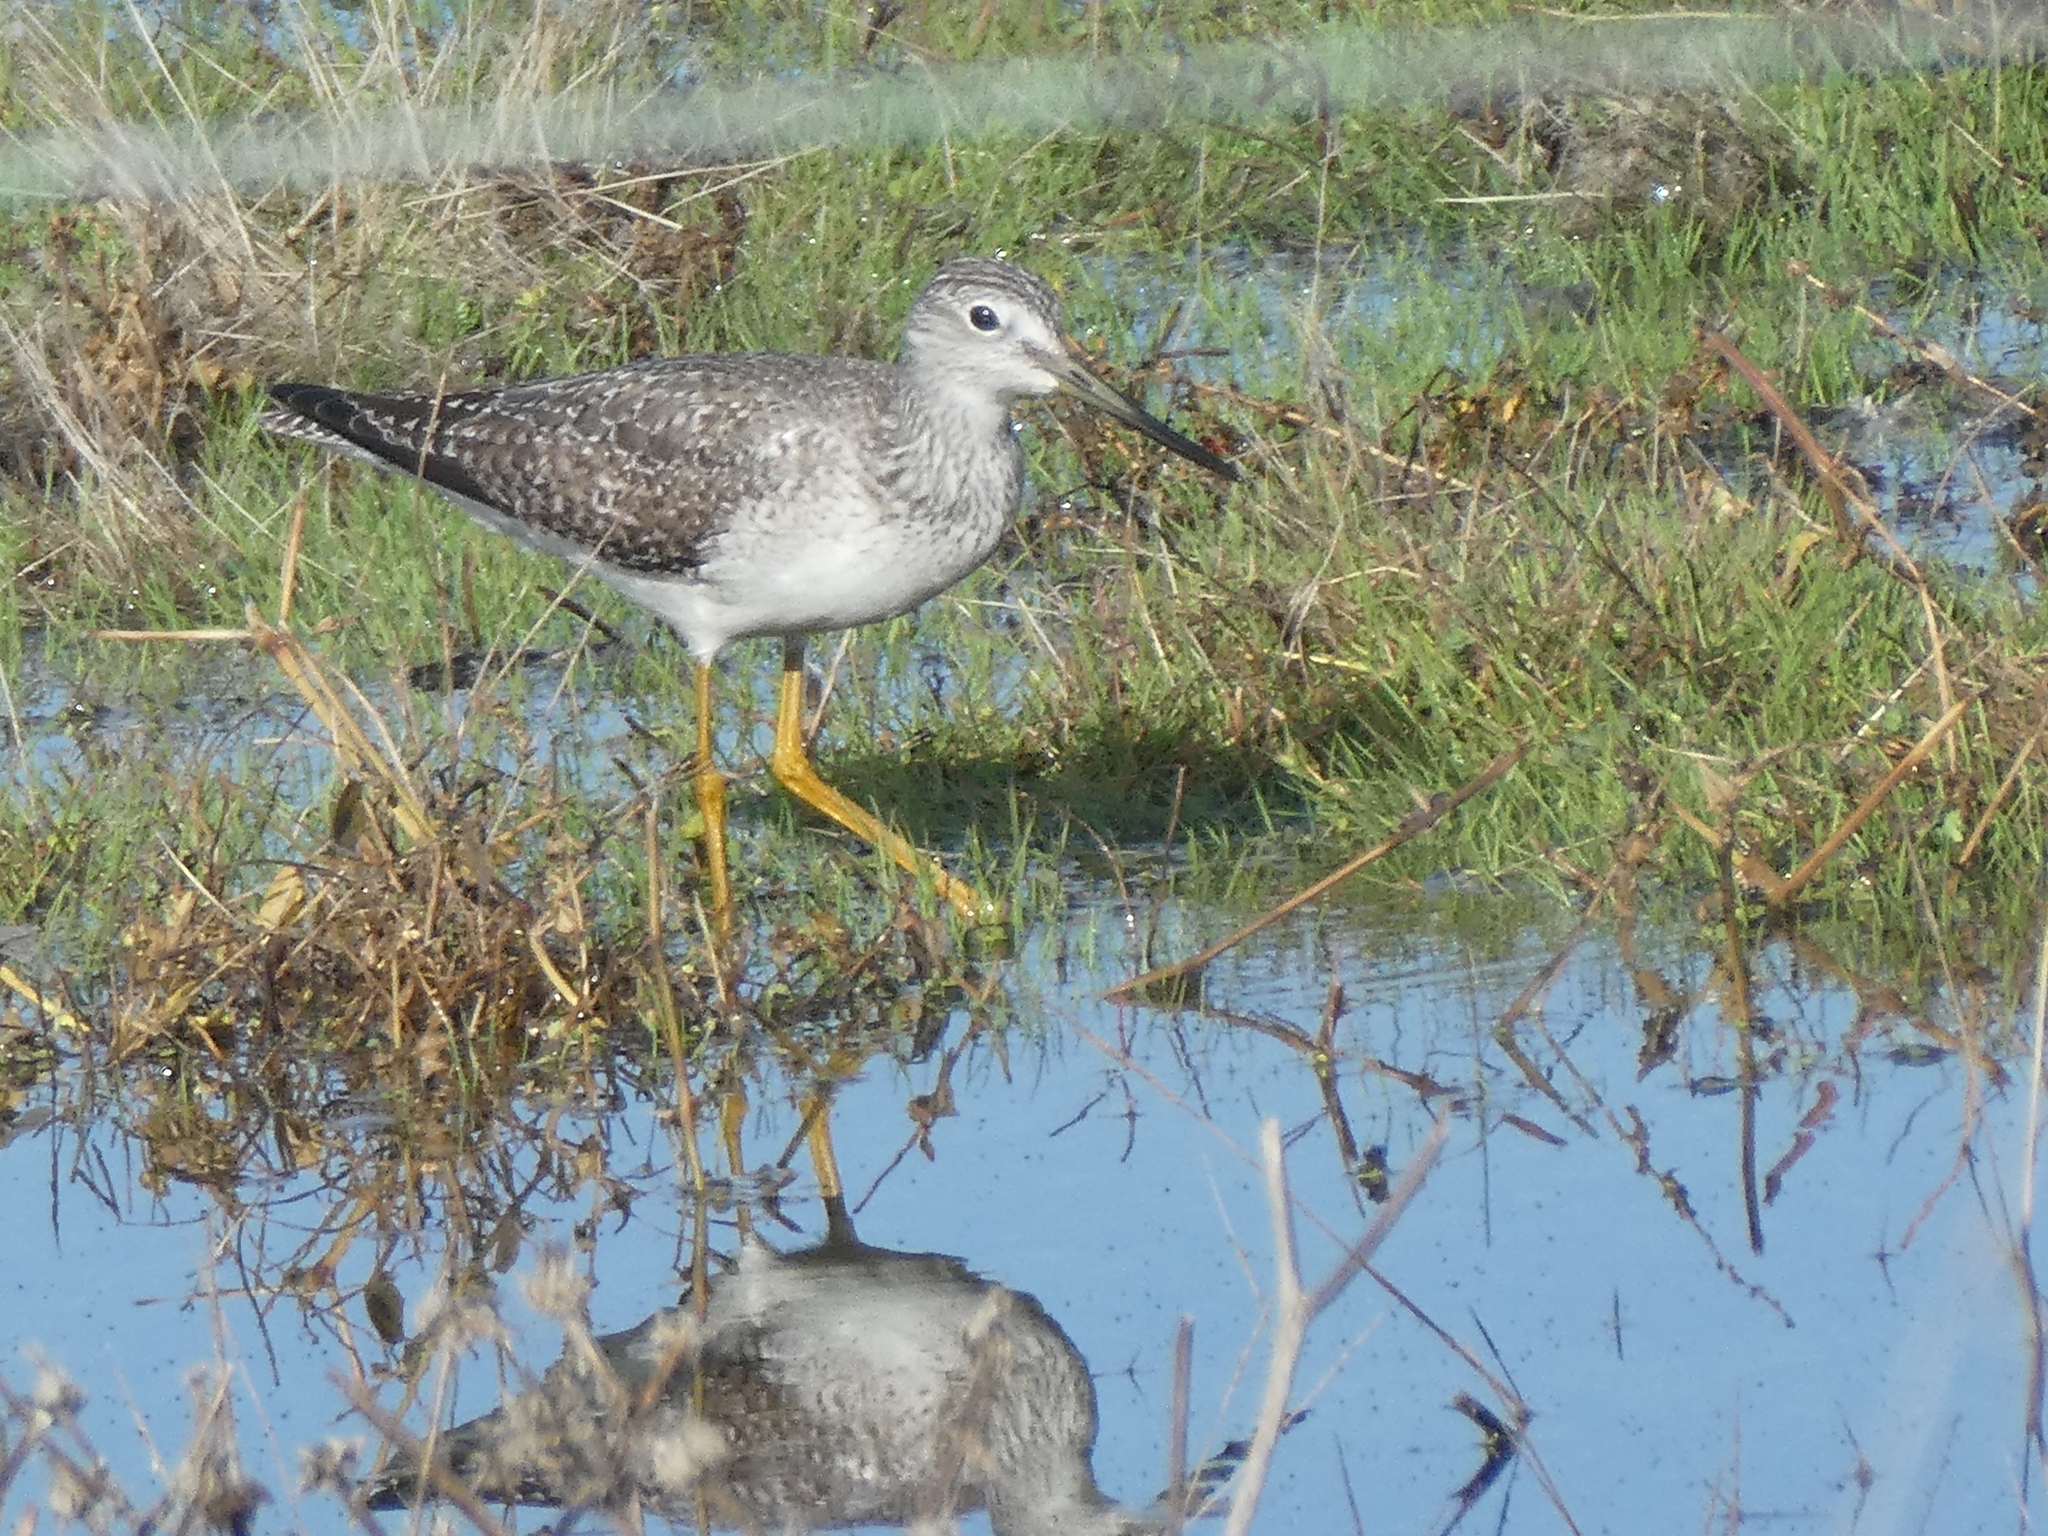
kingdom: Animalia
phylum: Chordata
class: Aves
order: Charadriiformes
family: Scolopacidae
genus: Tringa
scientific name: Tringa melanoleuca
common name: Greater yellowlegs
